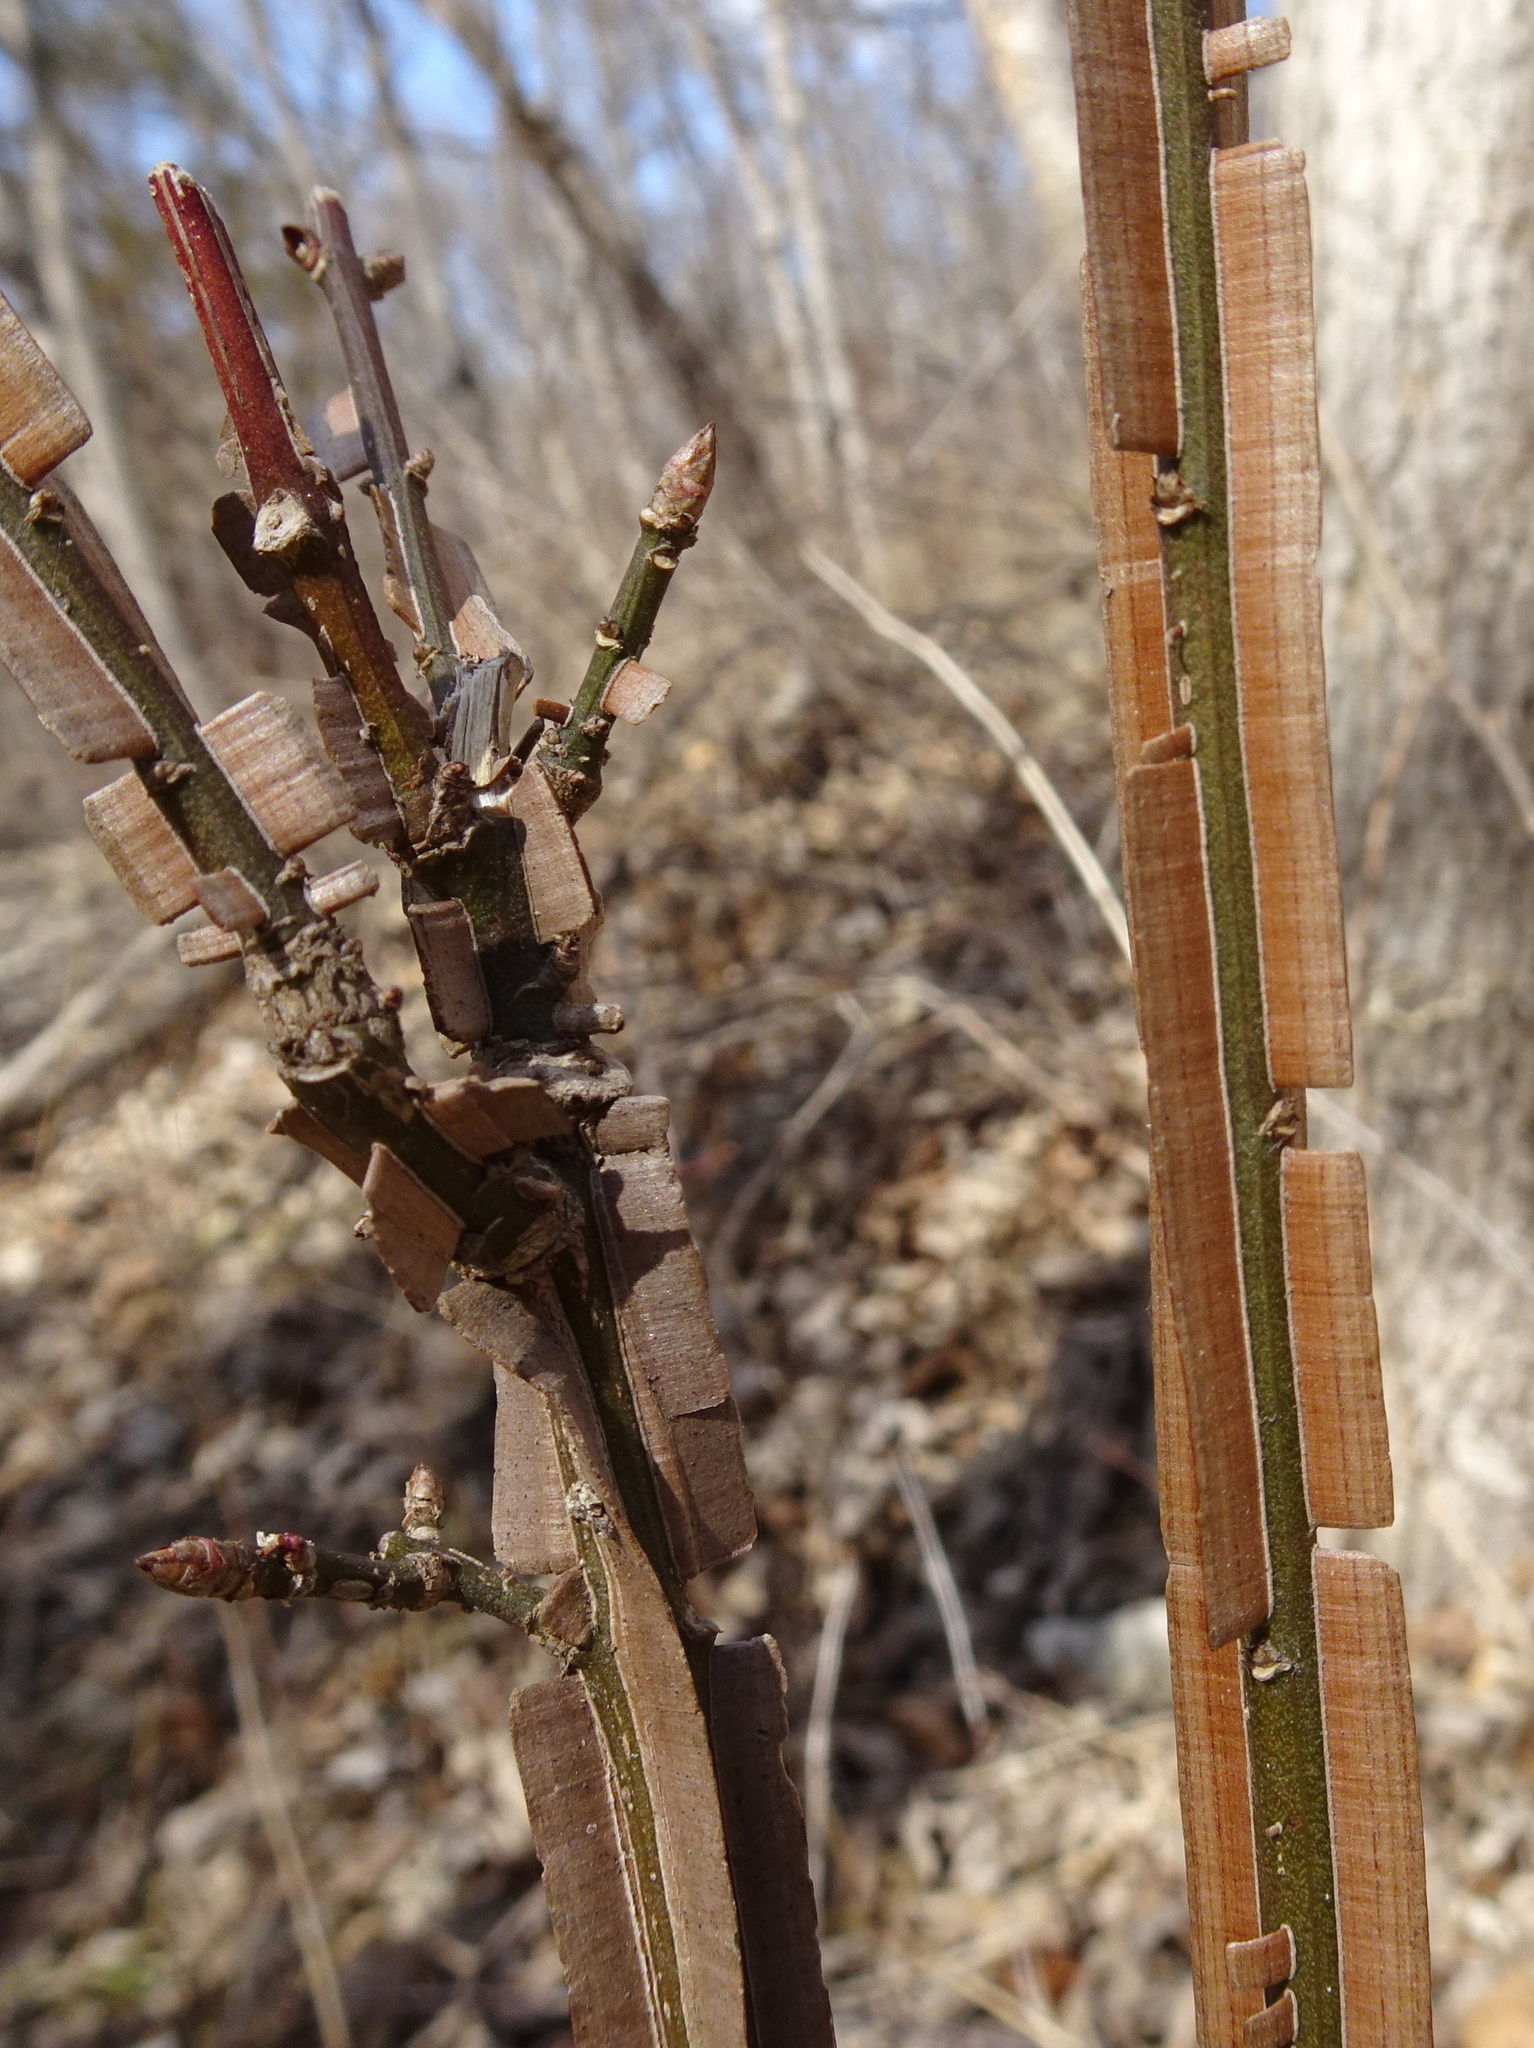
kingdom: Plantae
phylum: Tracheophyta
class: Magnoliopsida
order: Celastrales
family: Celastraceae
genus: Euonymus
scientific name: Euonymus alatus
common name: Winged euonymus
